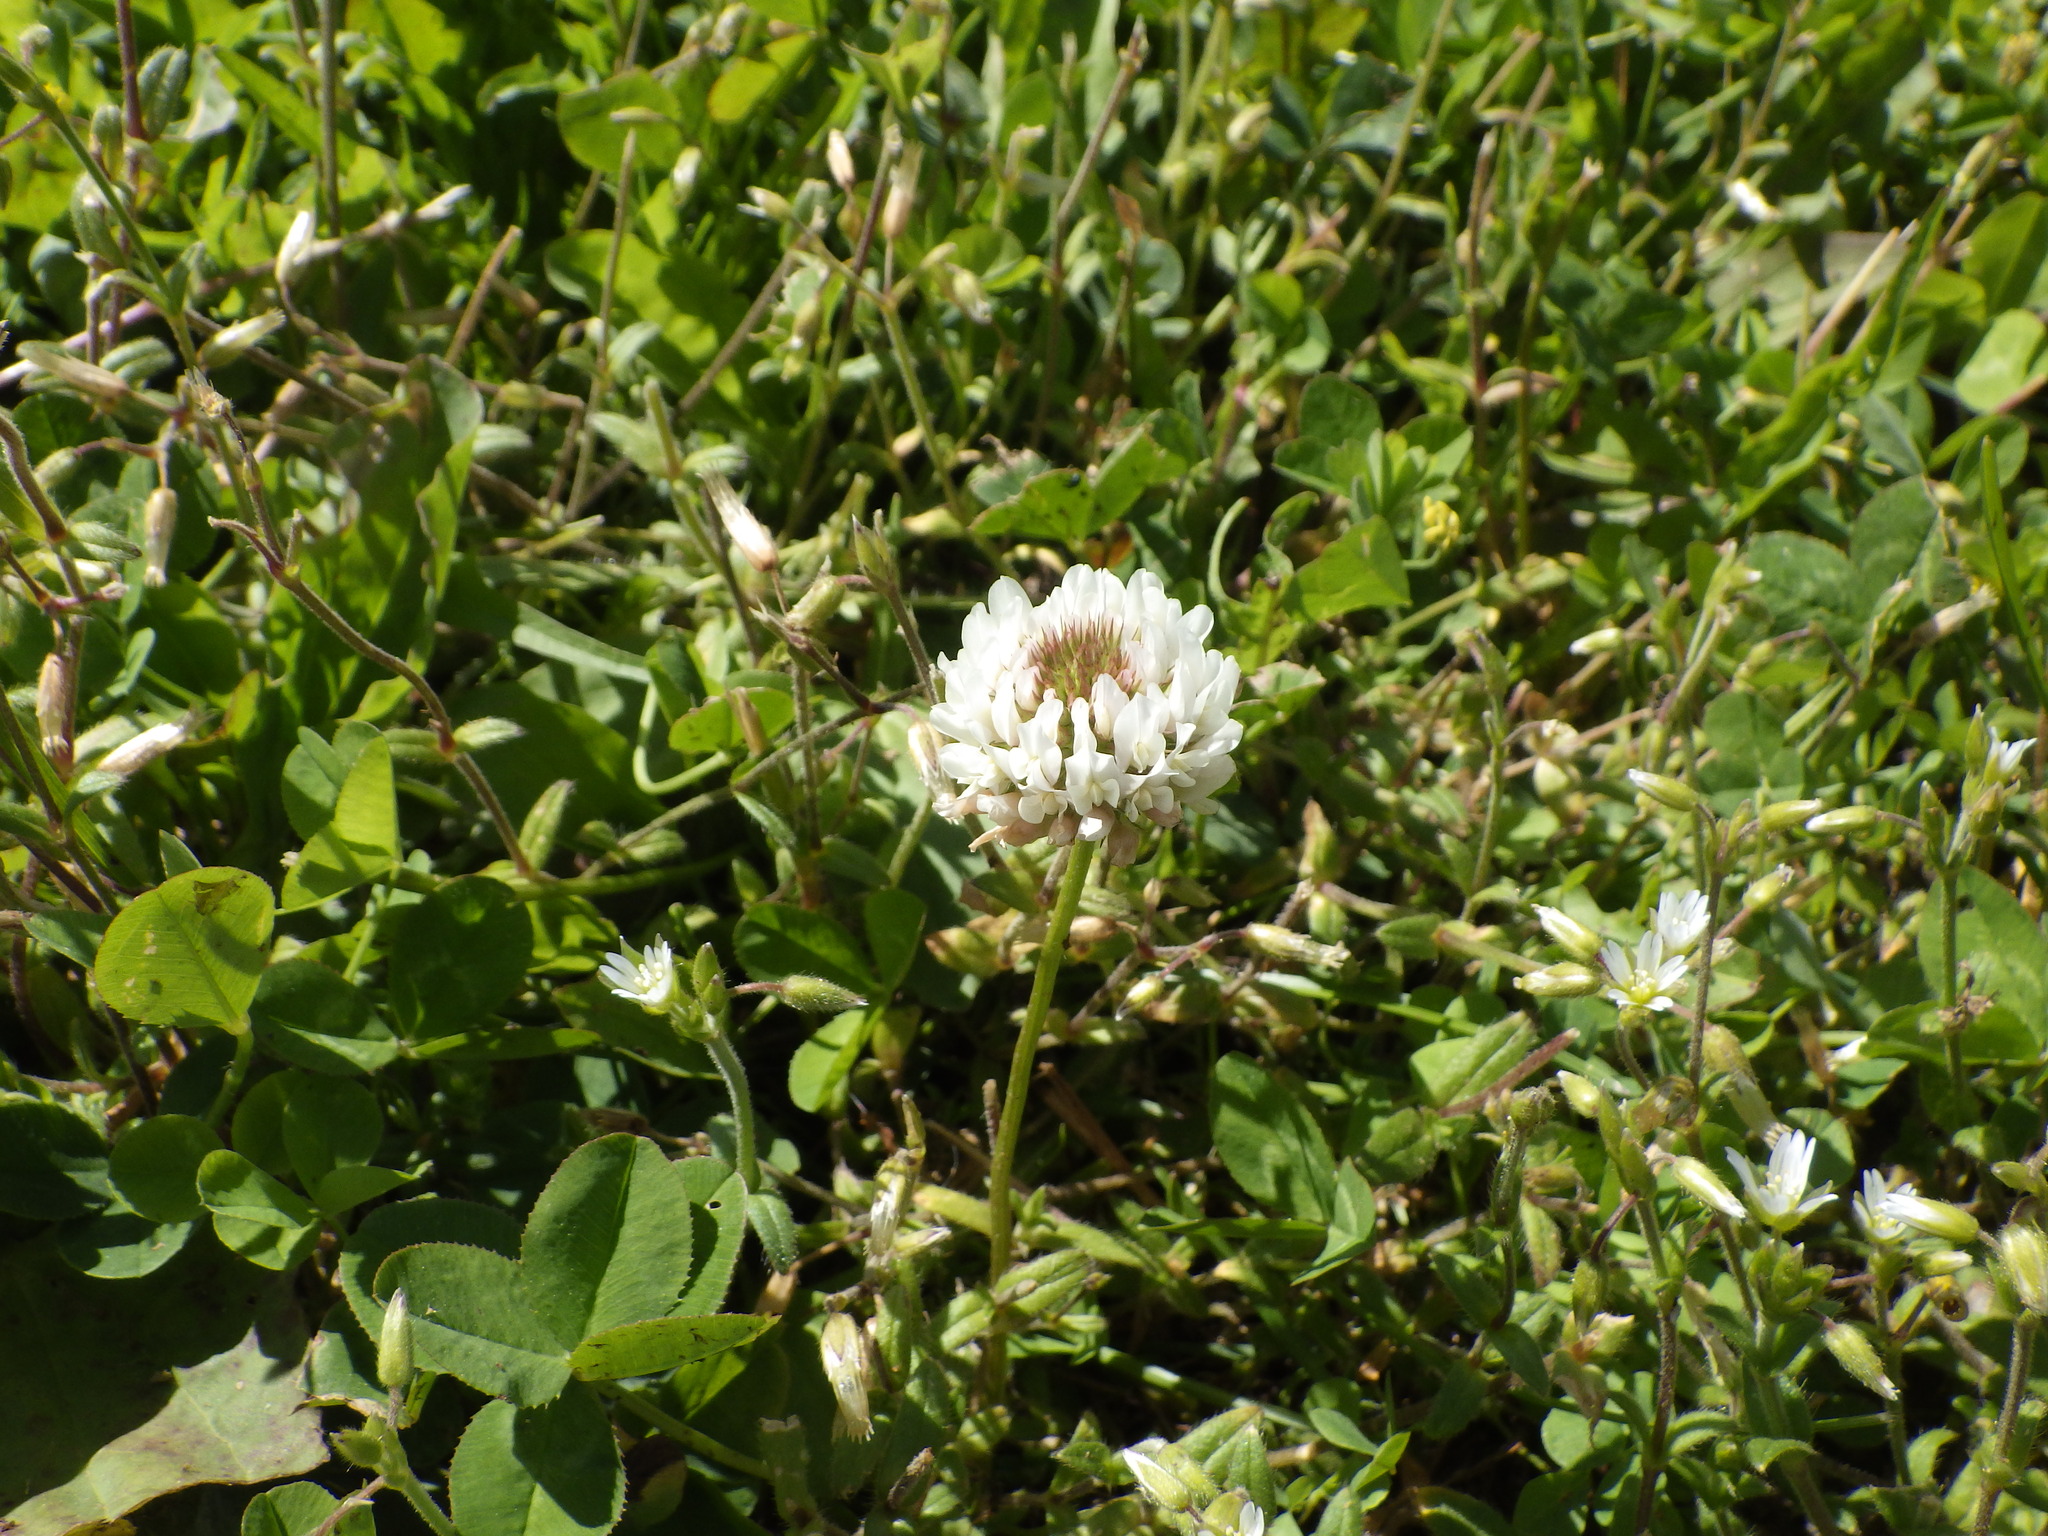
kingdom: Plantae
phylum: Tracheophyta
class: Magnoliopsida
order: Fabales
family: Fabaceae
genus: Trifolium
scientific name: Trifolium repens
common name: White clover
